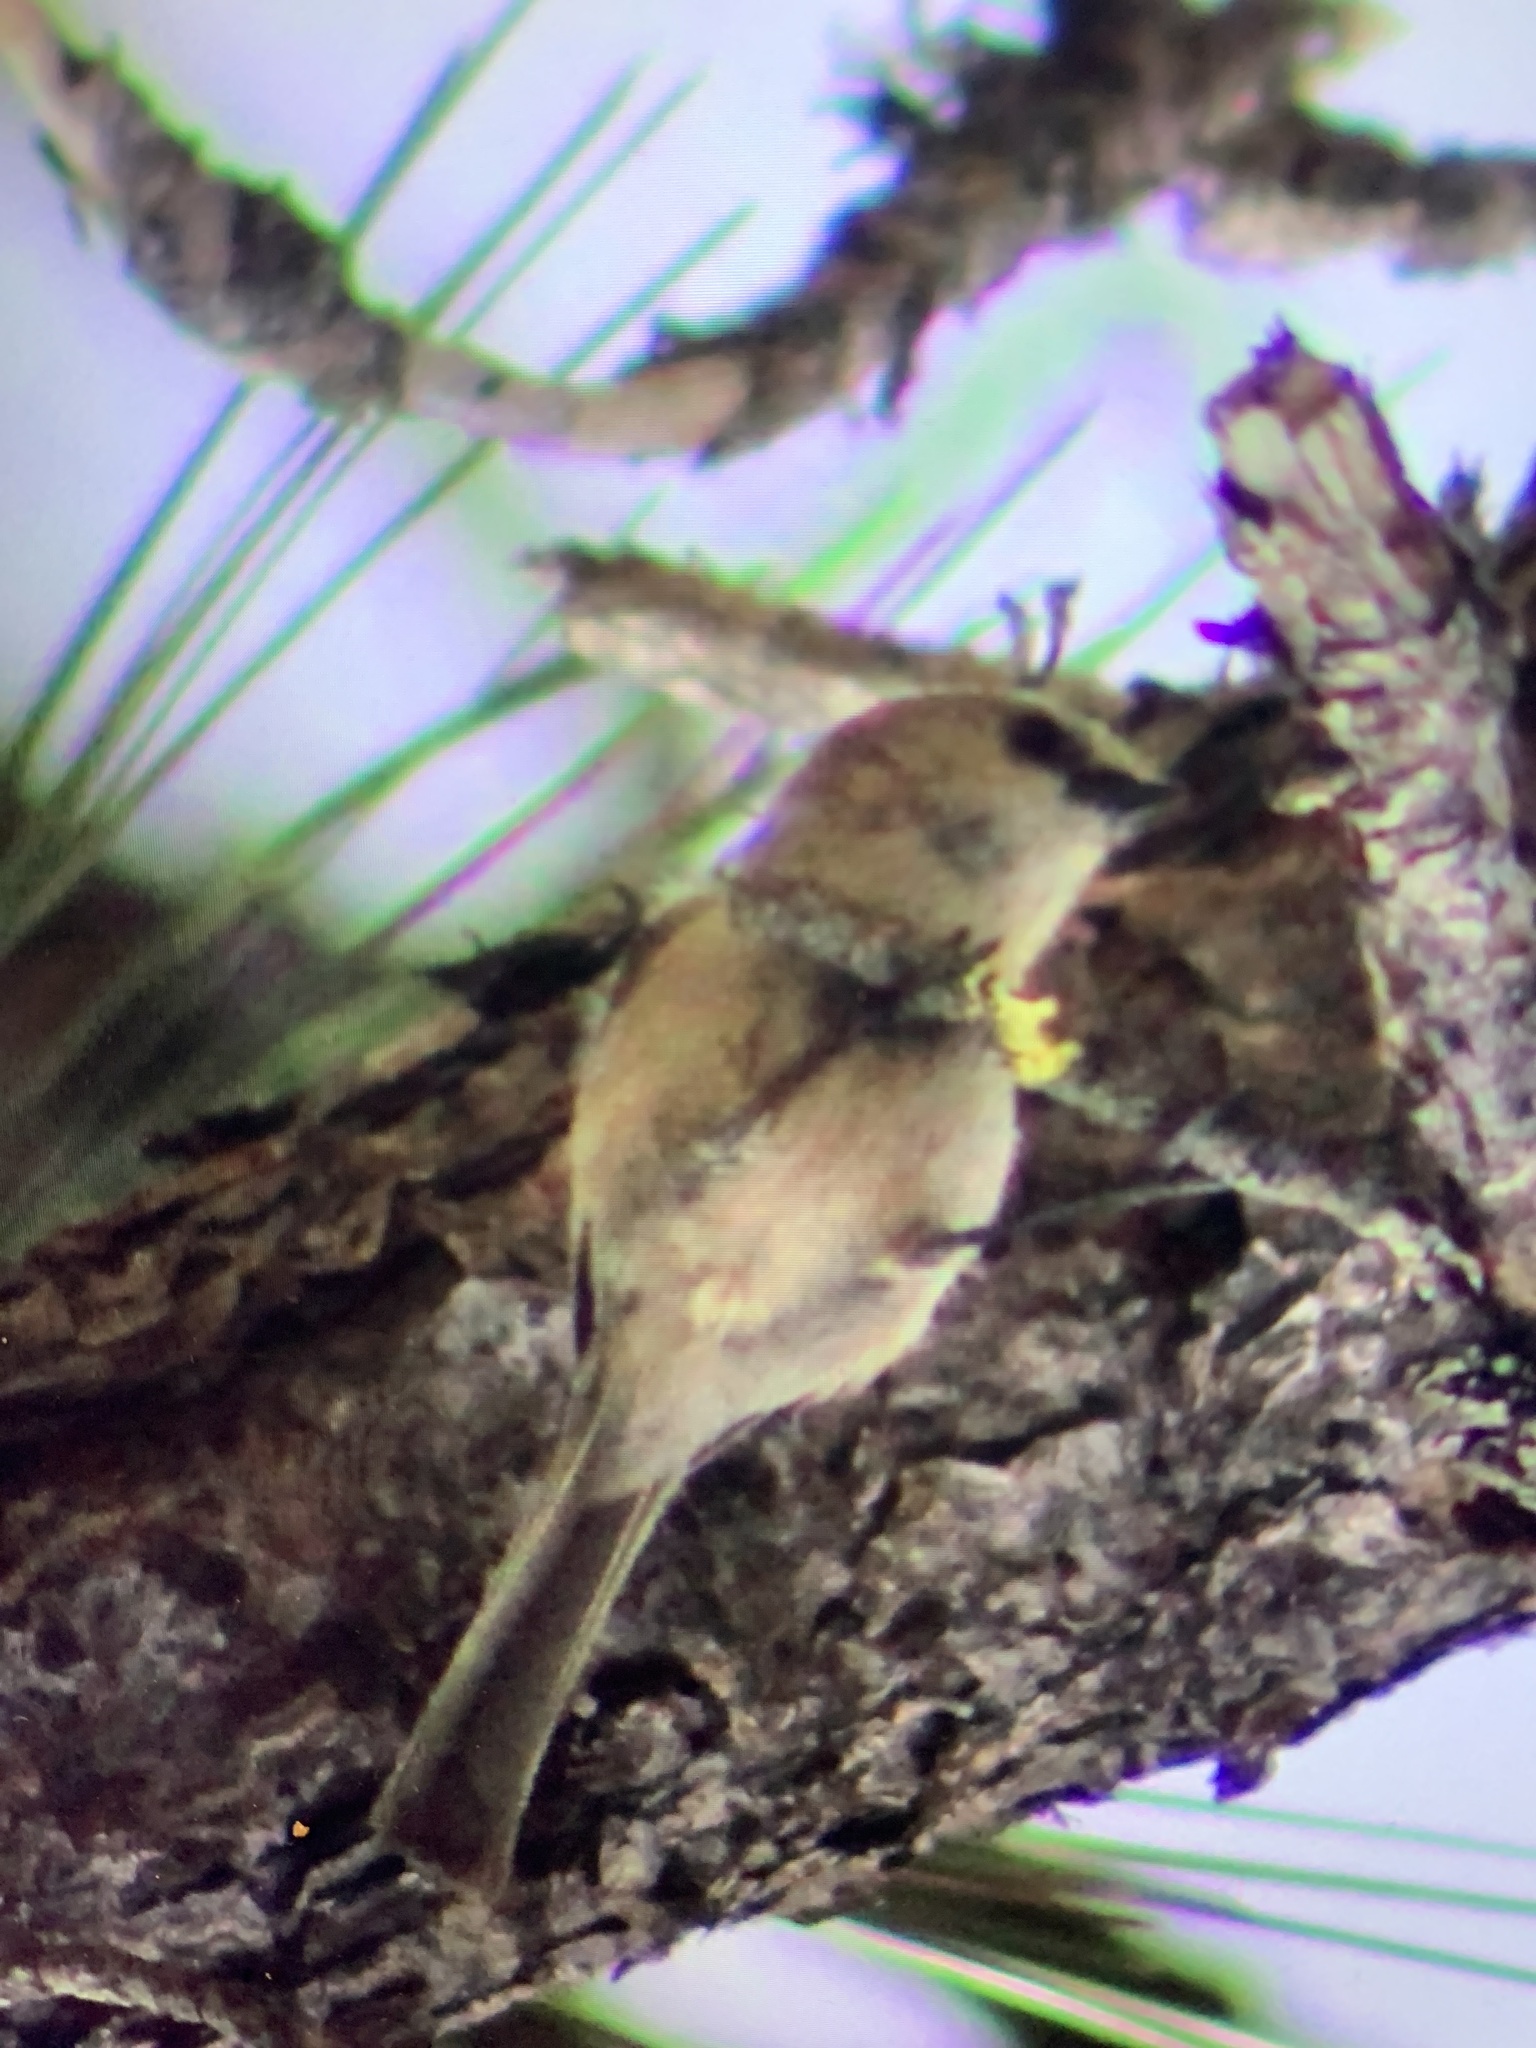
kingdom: Animalia
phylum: Chordata
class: Aves
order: Passeriformes
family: Aegithalidae
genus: Psaltriparus
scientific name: Psaltriparus minimus
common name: American bushtit
